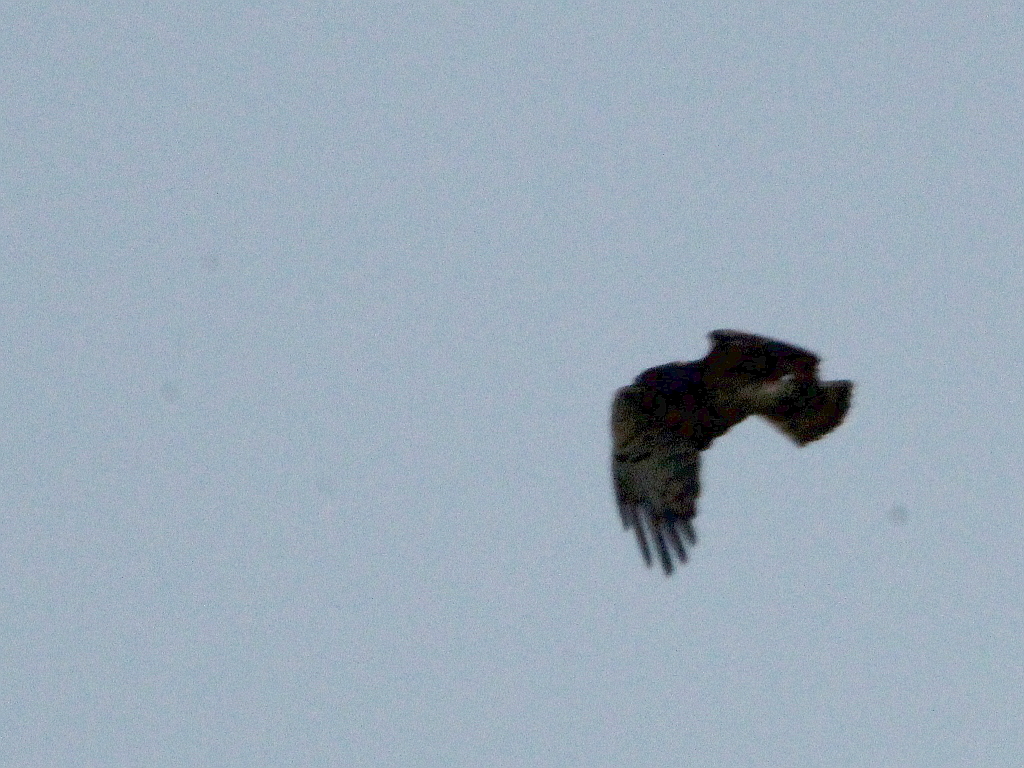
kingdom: Animalia
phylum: Chordata
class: Aves
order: Accipitriformes
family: Accipitridae
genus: Circaetus
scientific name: Circaetus gallicus
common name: Short-toed snake eagle
